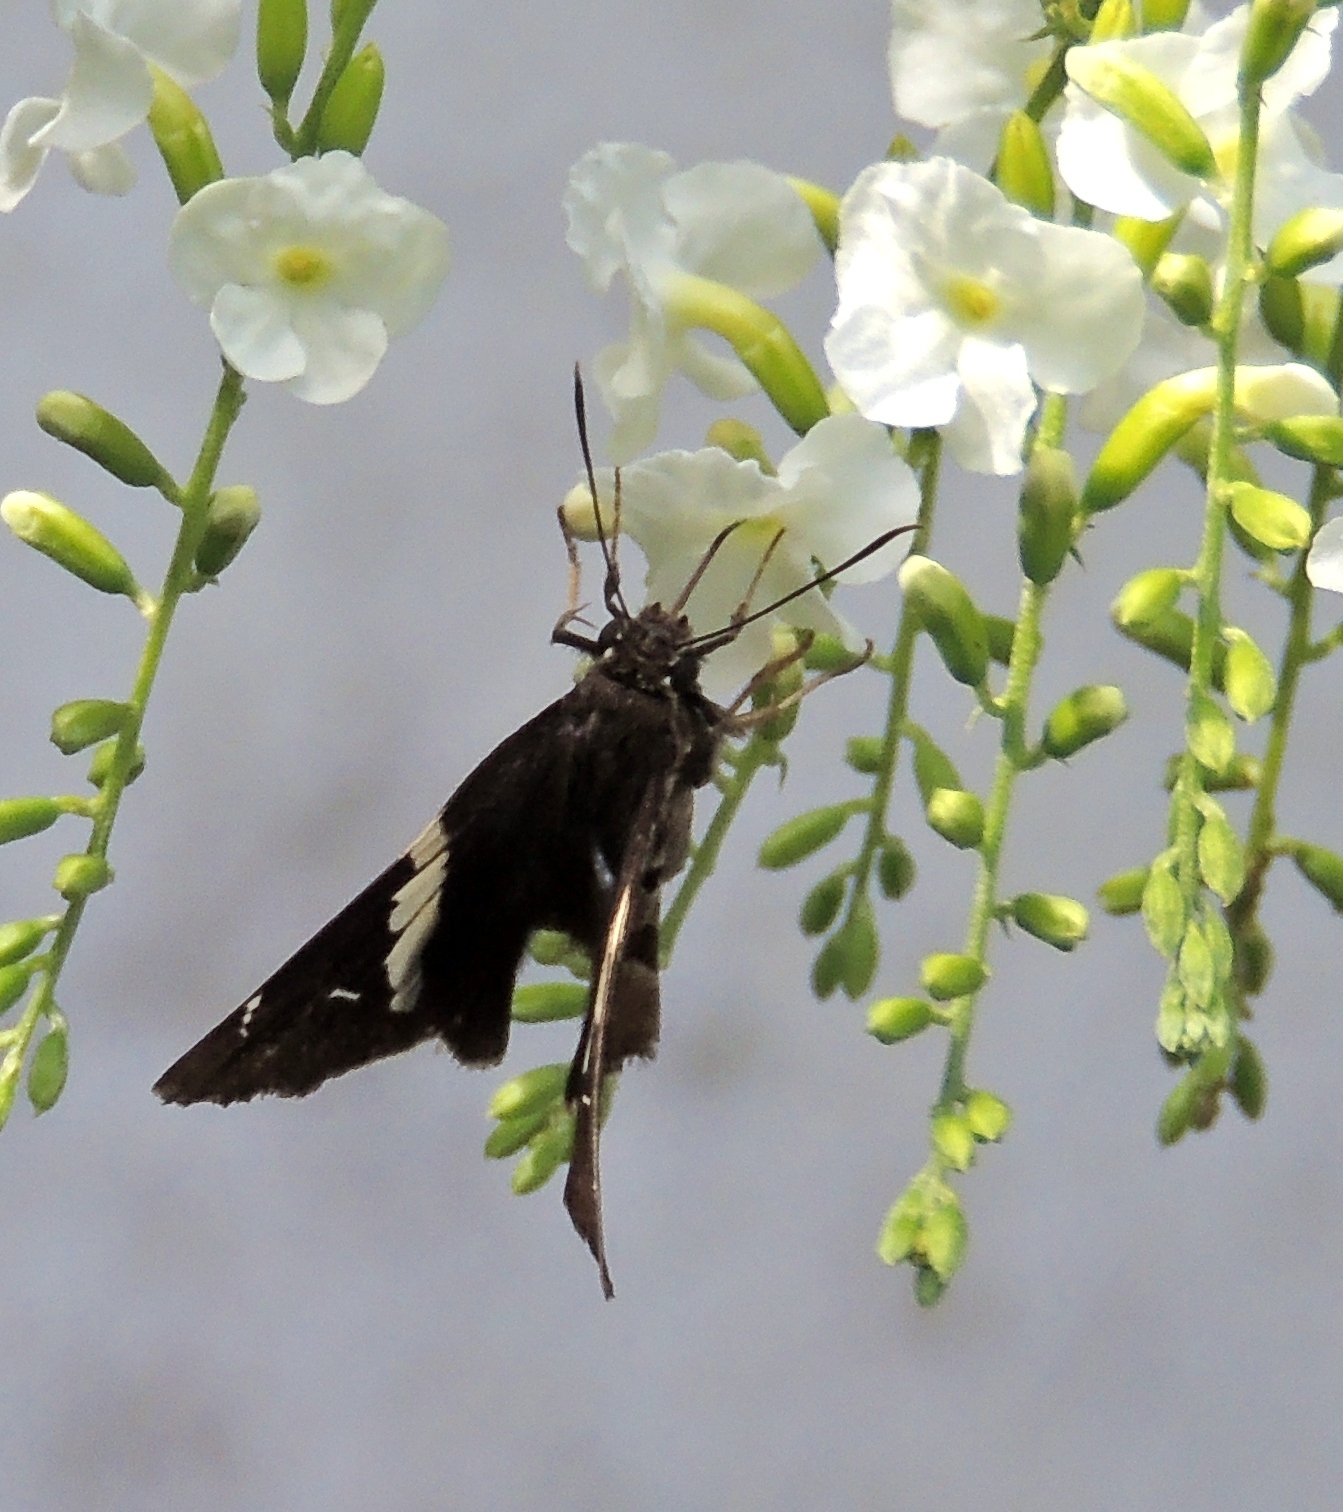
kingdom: Animalia
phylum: Arthropoda
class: Insecta
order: Lepidoptera
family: Hesperiidae
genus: Spathilepia
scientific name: Spathilepia clonius
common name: Falcate skipper
